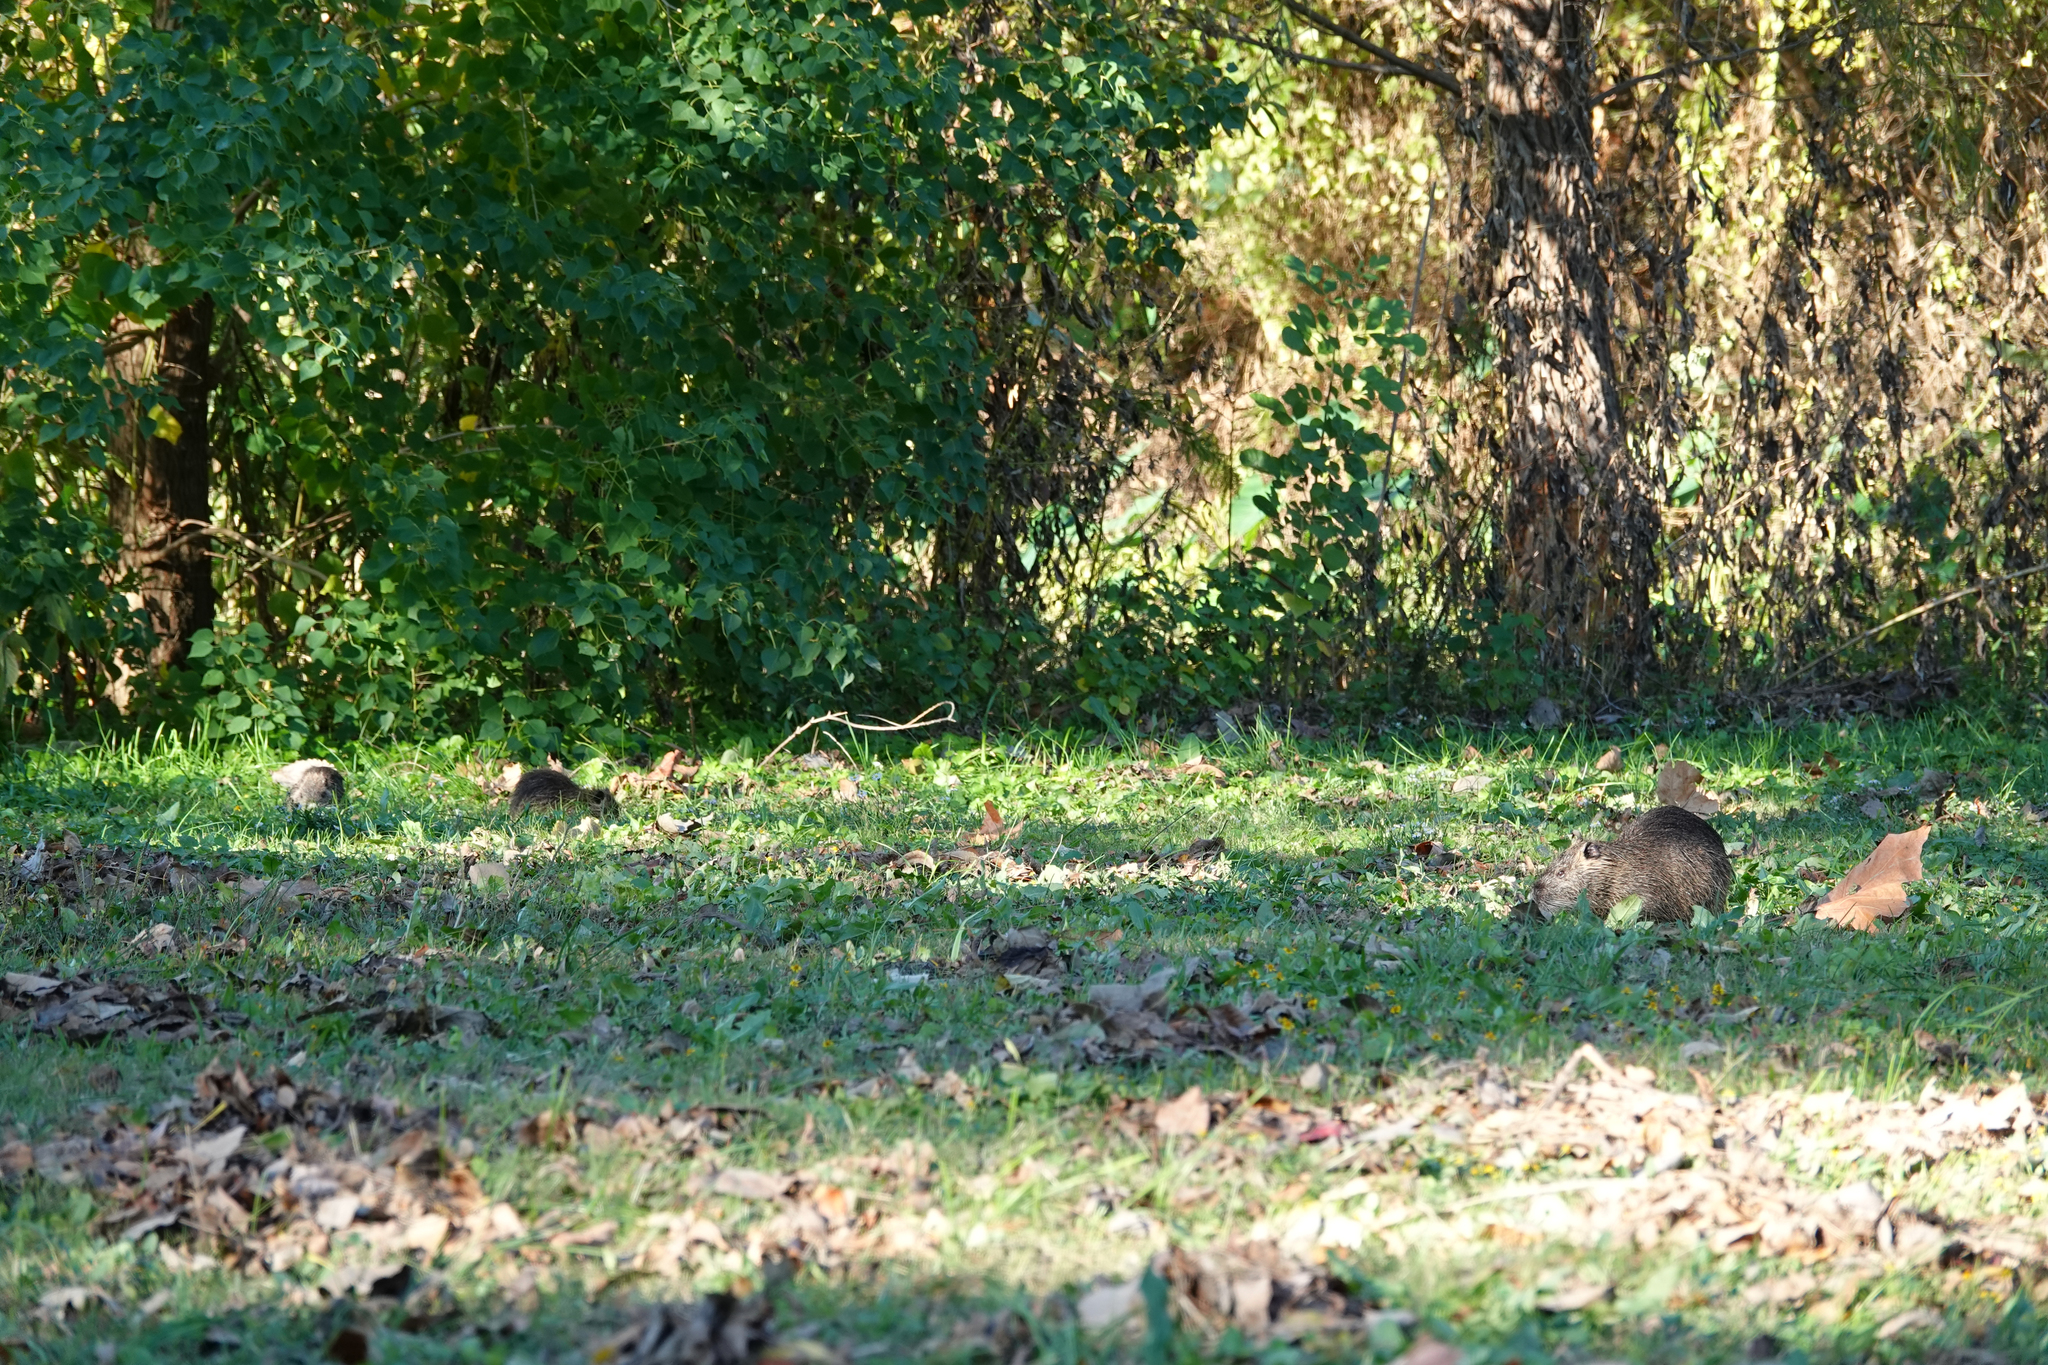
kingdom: Animalia
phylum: Chordata
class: Mammalia
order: Rodentia
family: Myocastoridae
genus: Myocastor
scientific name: Myocastor coypus
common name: Coypu
